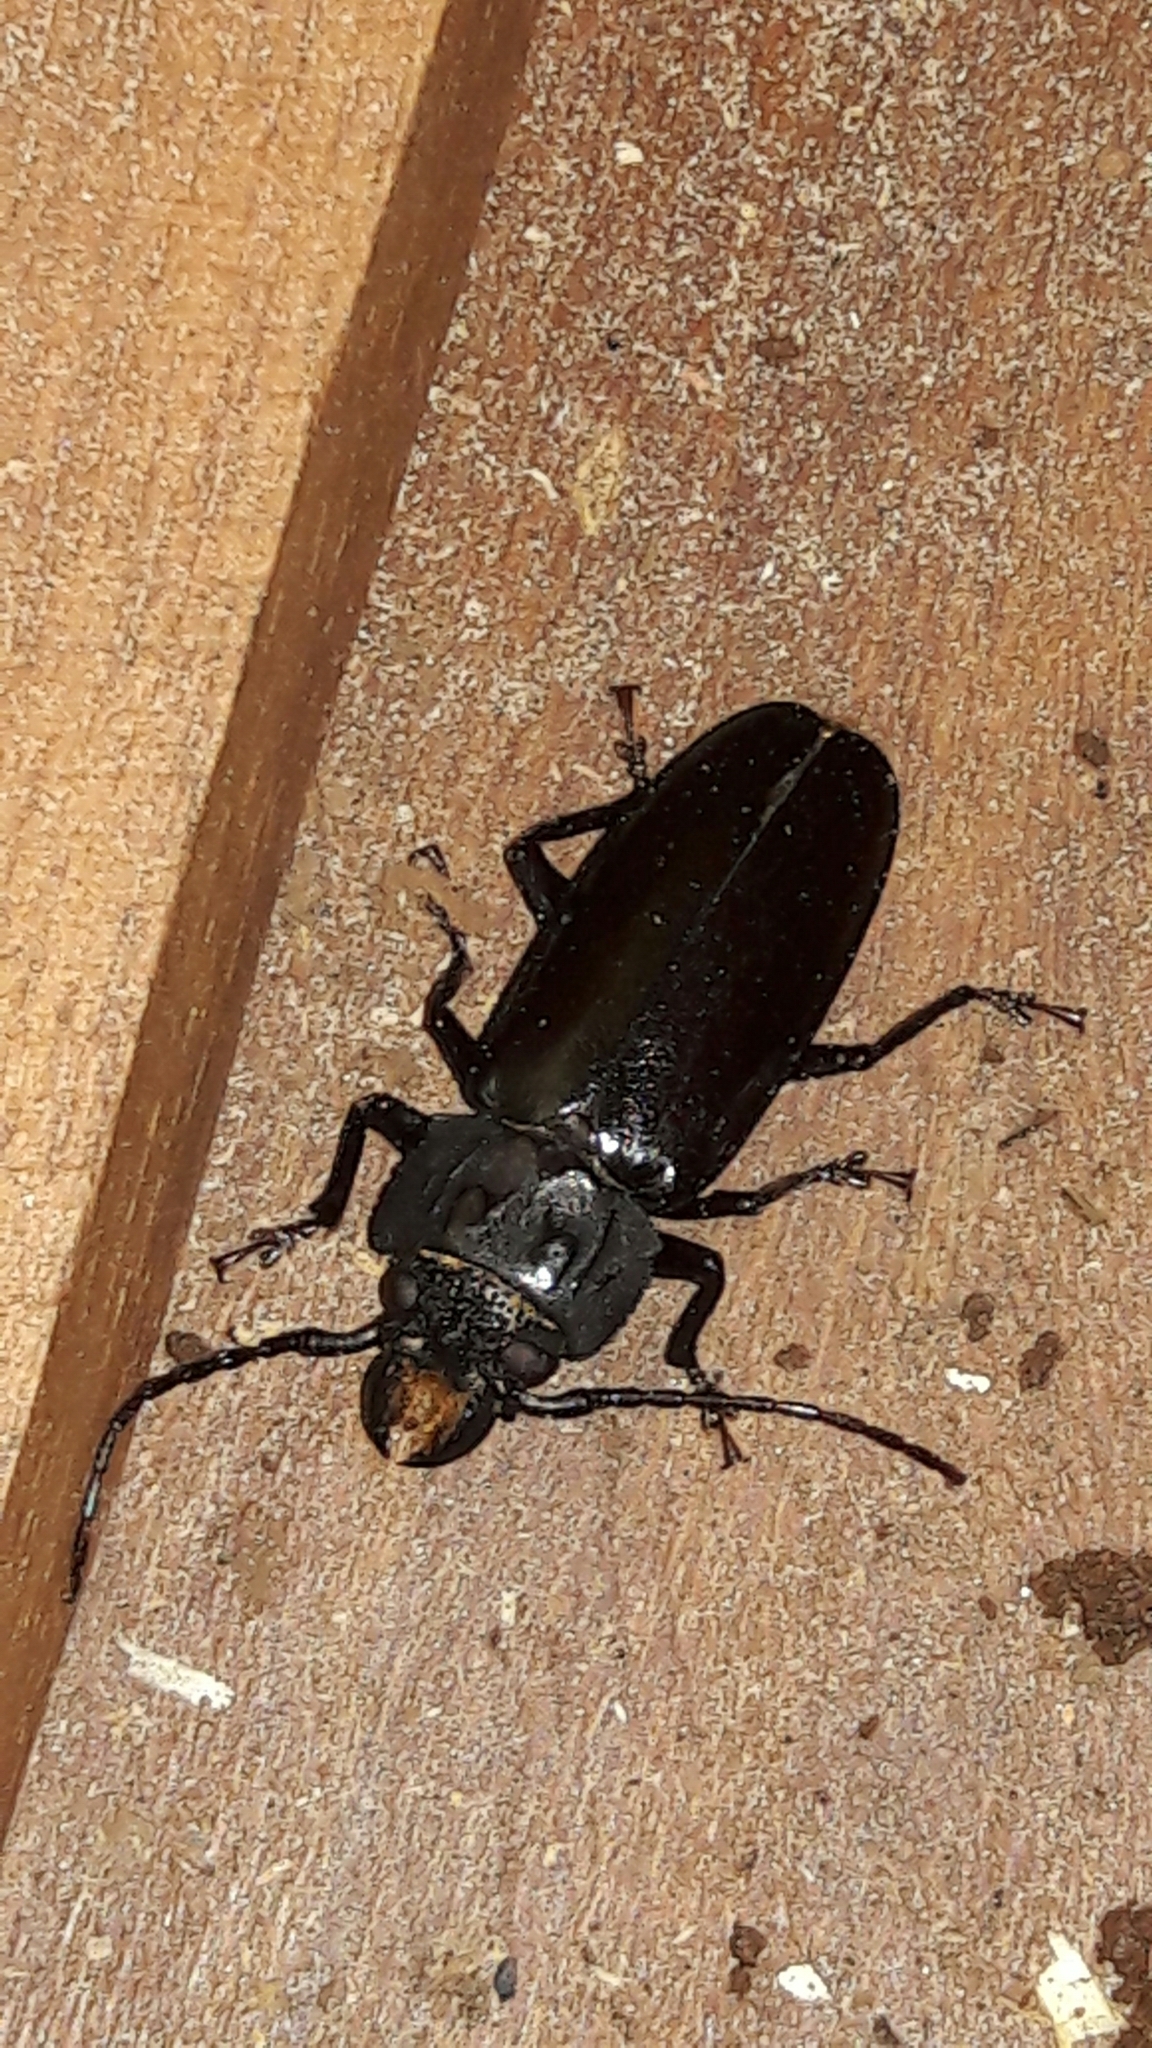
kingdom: Animalia
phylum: Arthropoda
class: Insecta
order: Coleoptera
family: Cerambycidae
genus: Mallodon
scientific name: Mallodon baiulus
